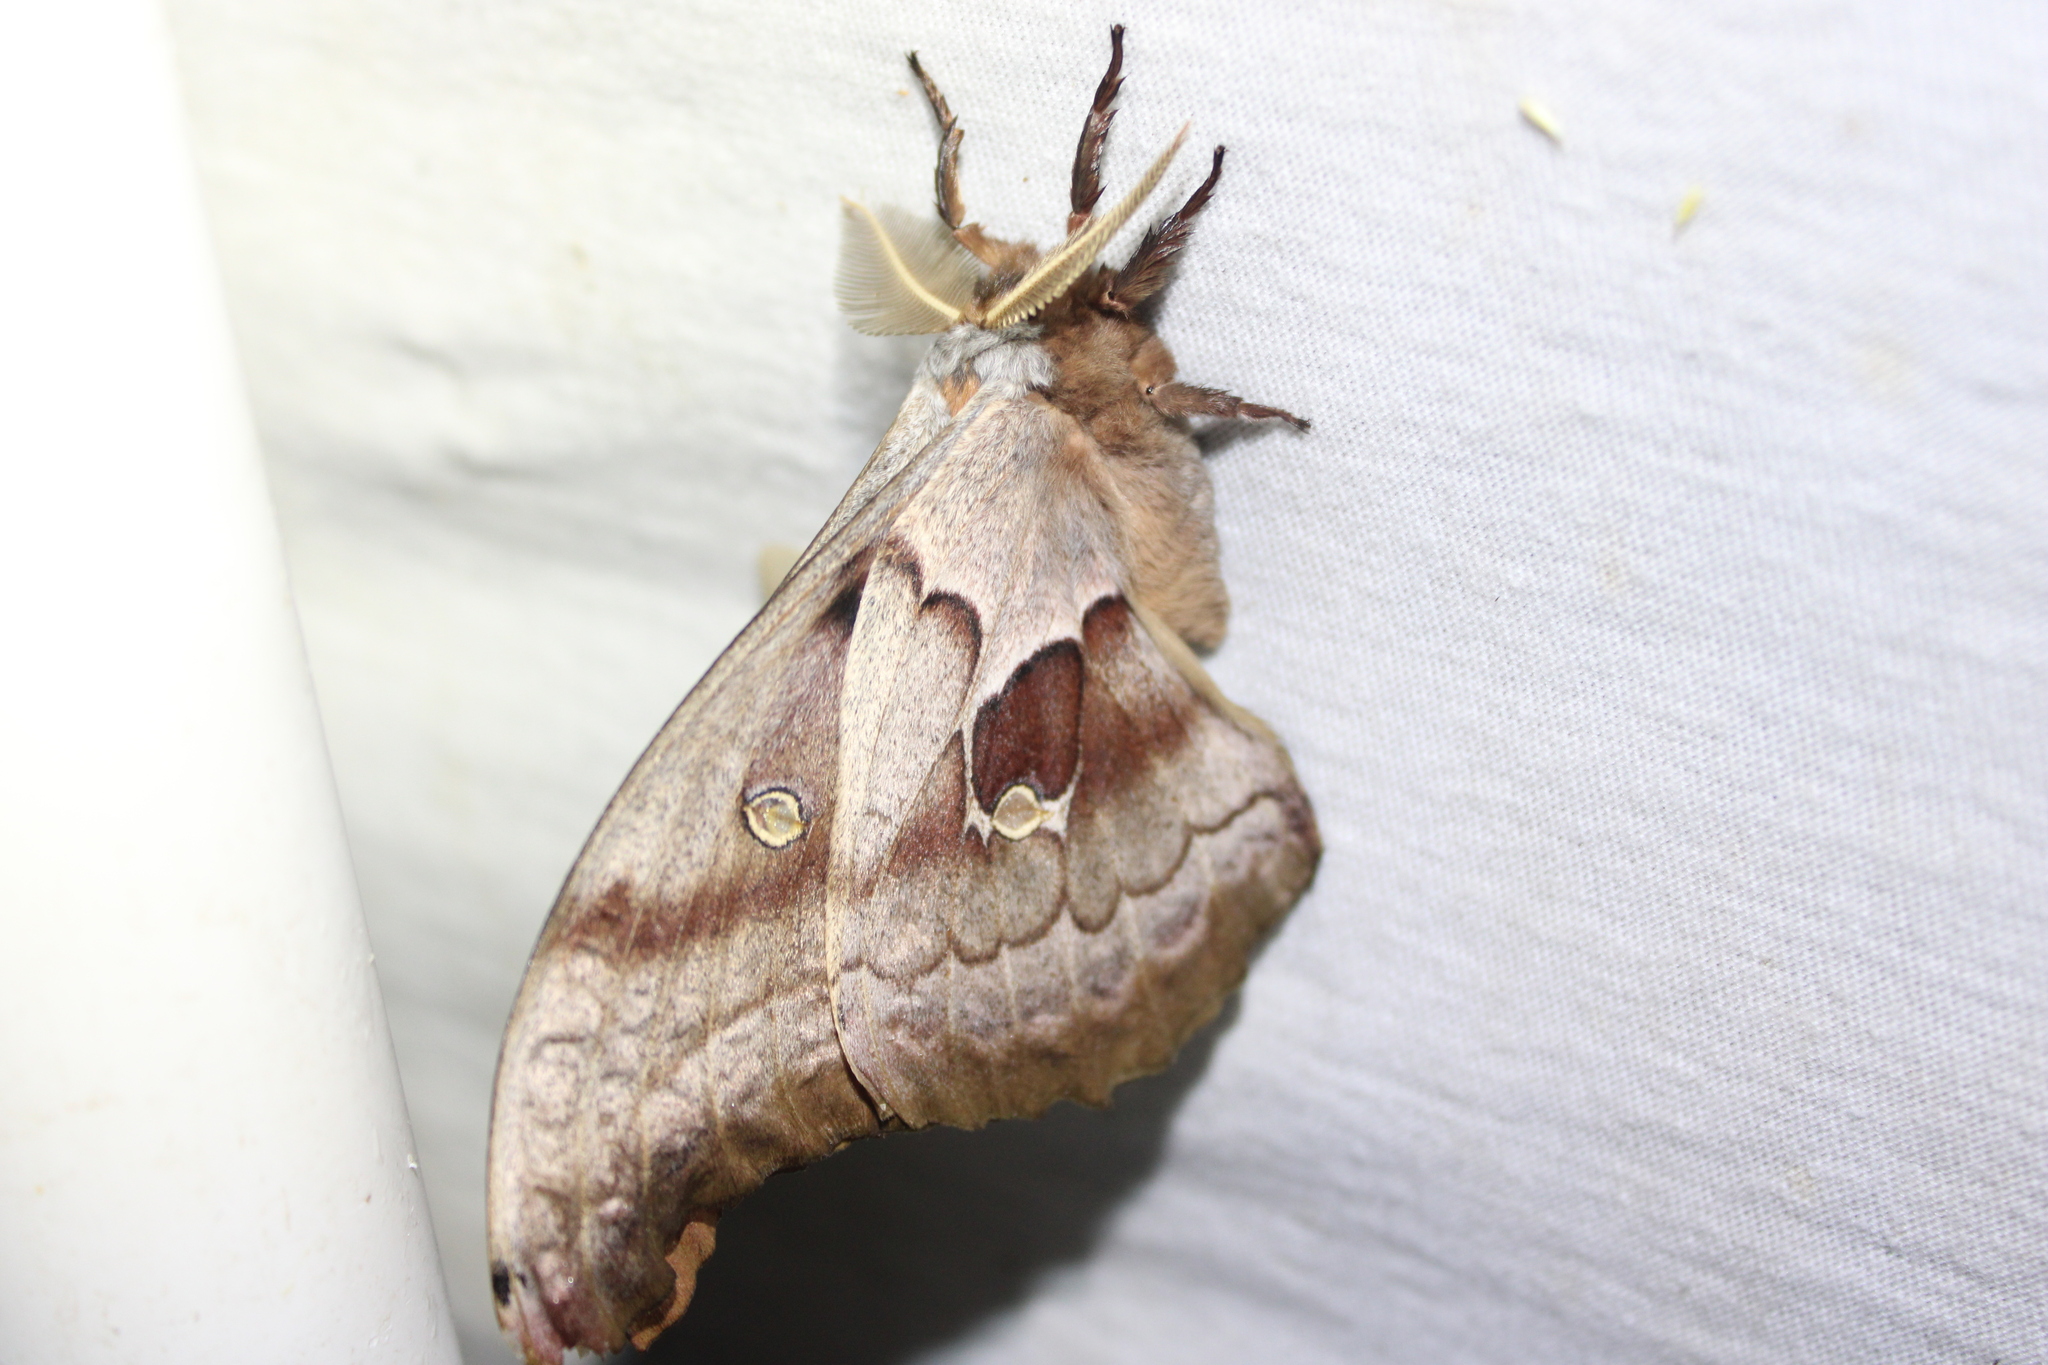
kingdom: Animalia
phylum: Arthropoda
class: Insecta
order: Lepidoptera
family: Saturniidae
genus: Antheraea
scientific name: Antheraea polyphemus
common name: Polyphemus moth
